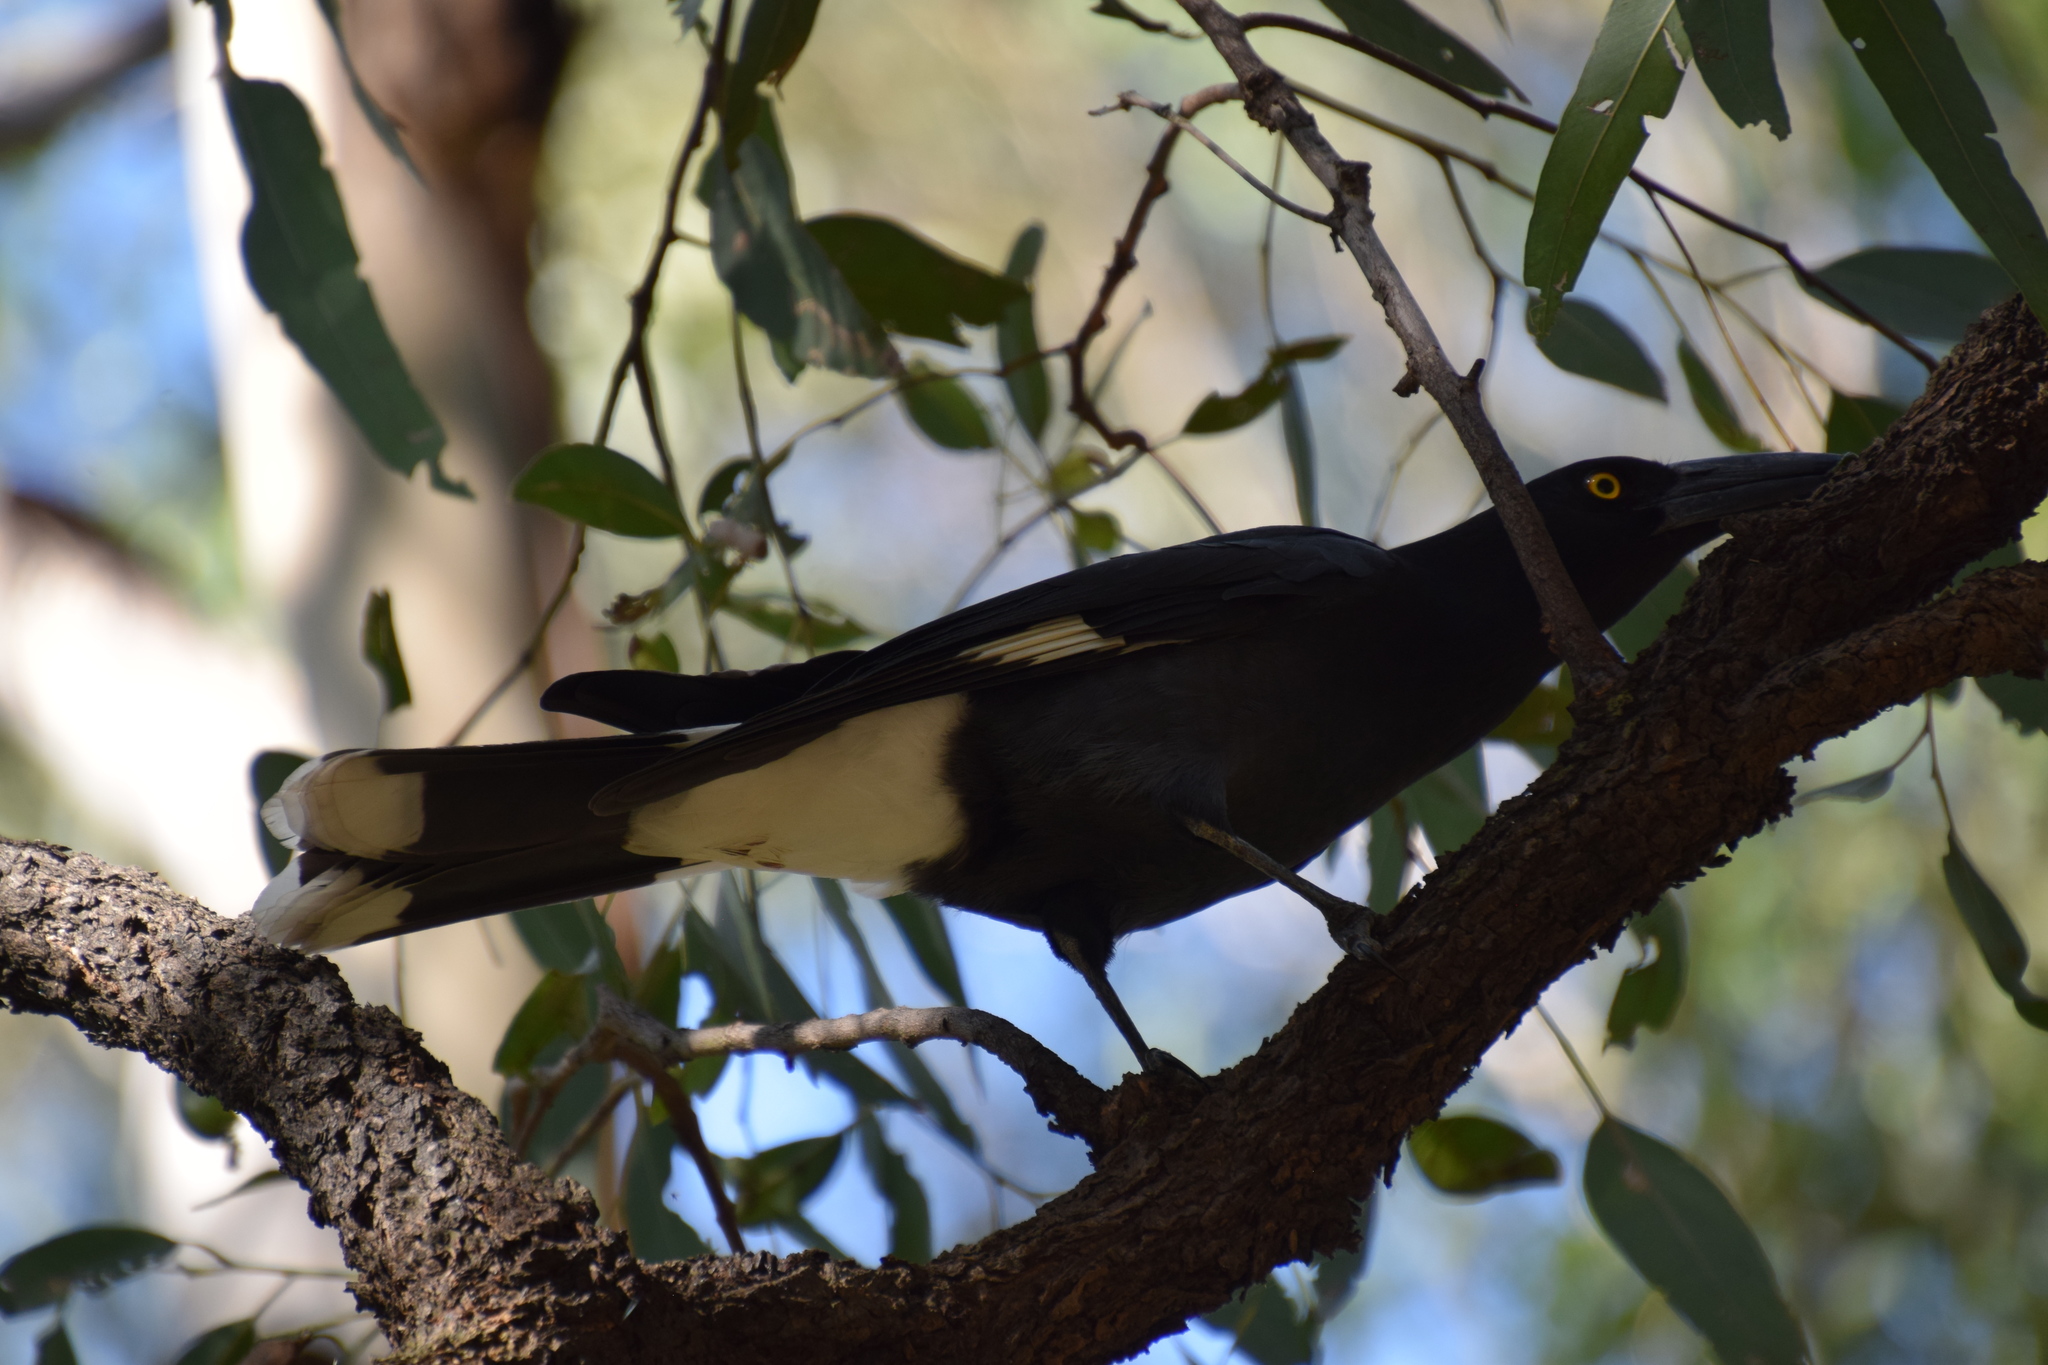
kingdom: Animalia
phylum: Chordata
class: Aves
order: Passeriformes
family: Cracticidae
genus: Strepera
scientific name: Strepera graculina
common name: Pied currawong
